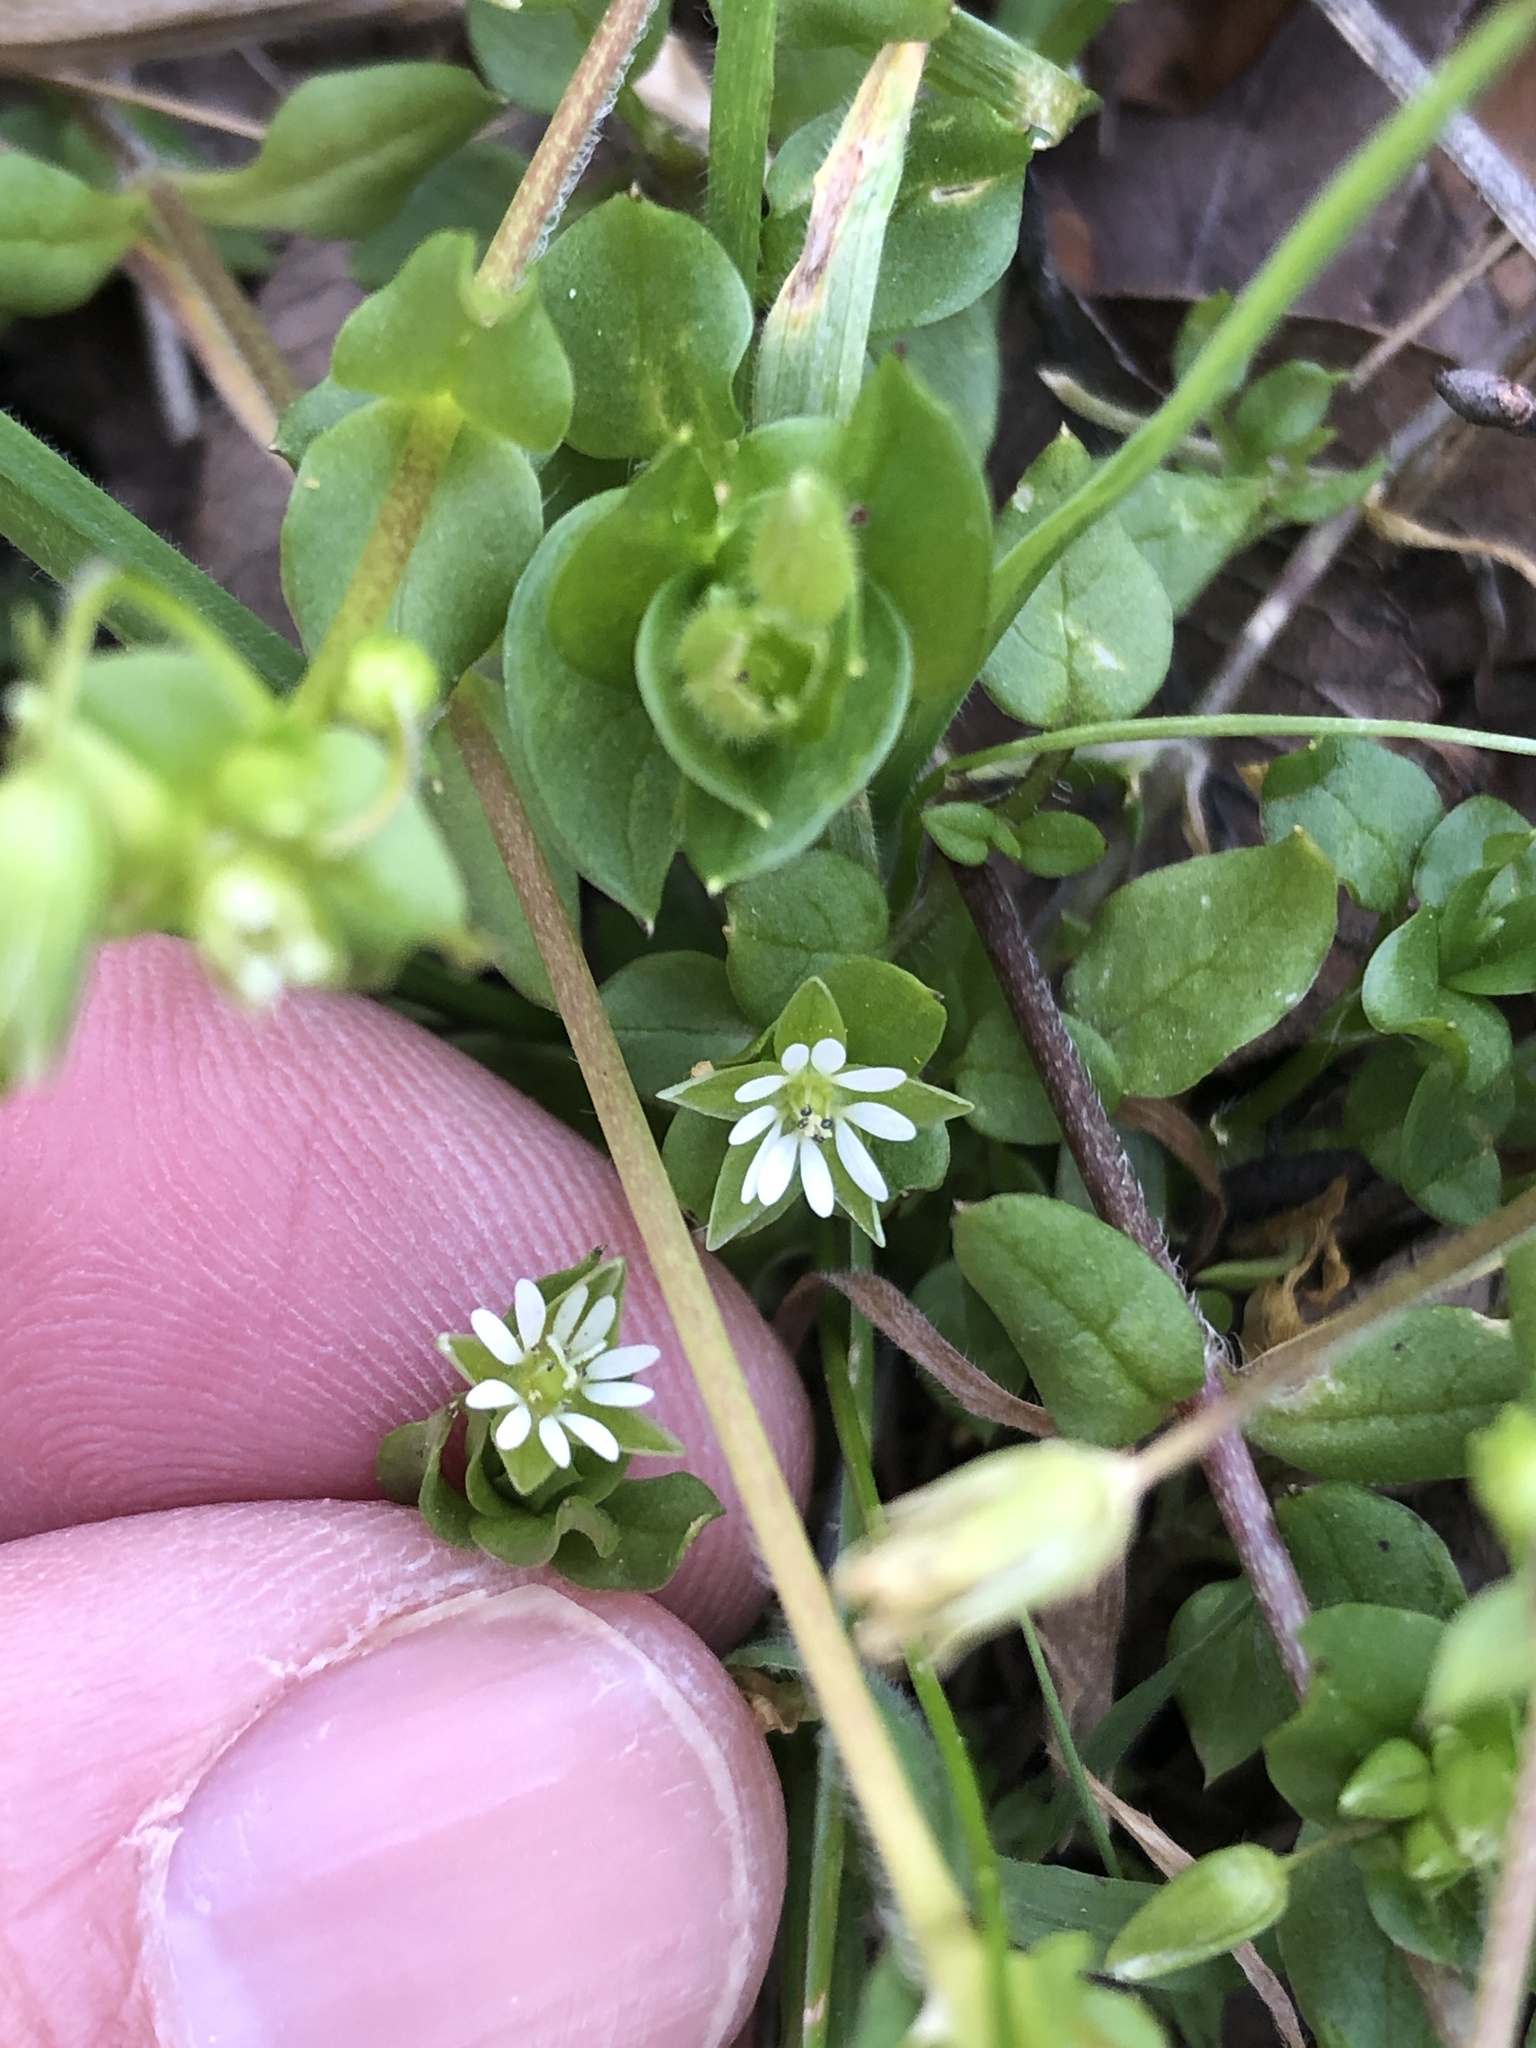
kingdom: Plantae
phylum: Tracheophyta
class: Magnoliopsida
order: Caryophyllales
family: Caryophyllaceae
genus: Stellaria
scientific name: Stellaria media
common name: Common chickweed
